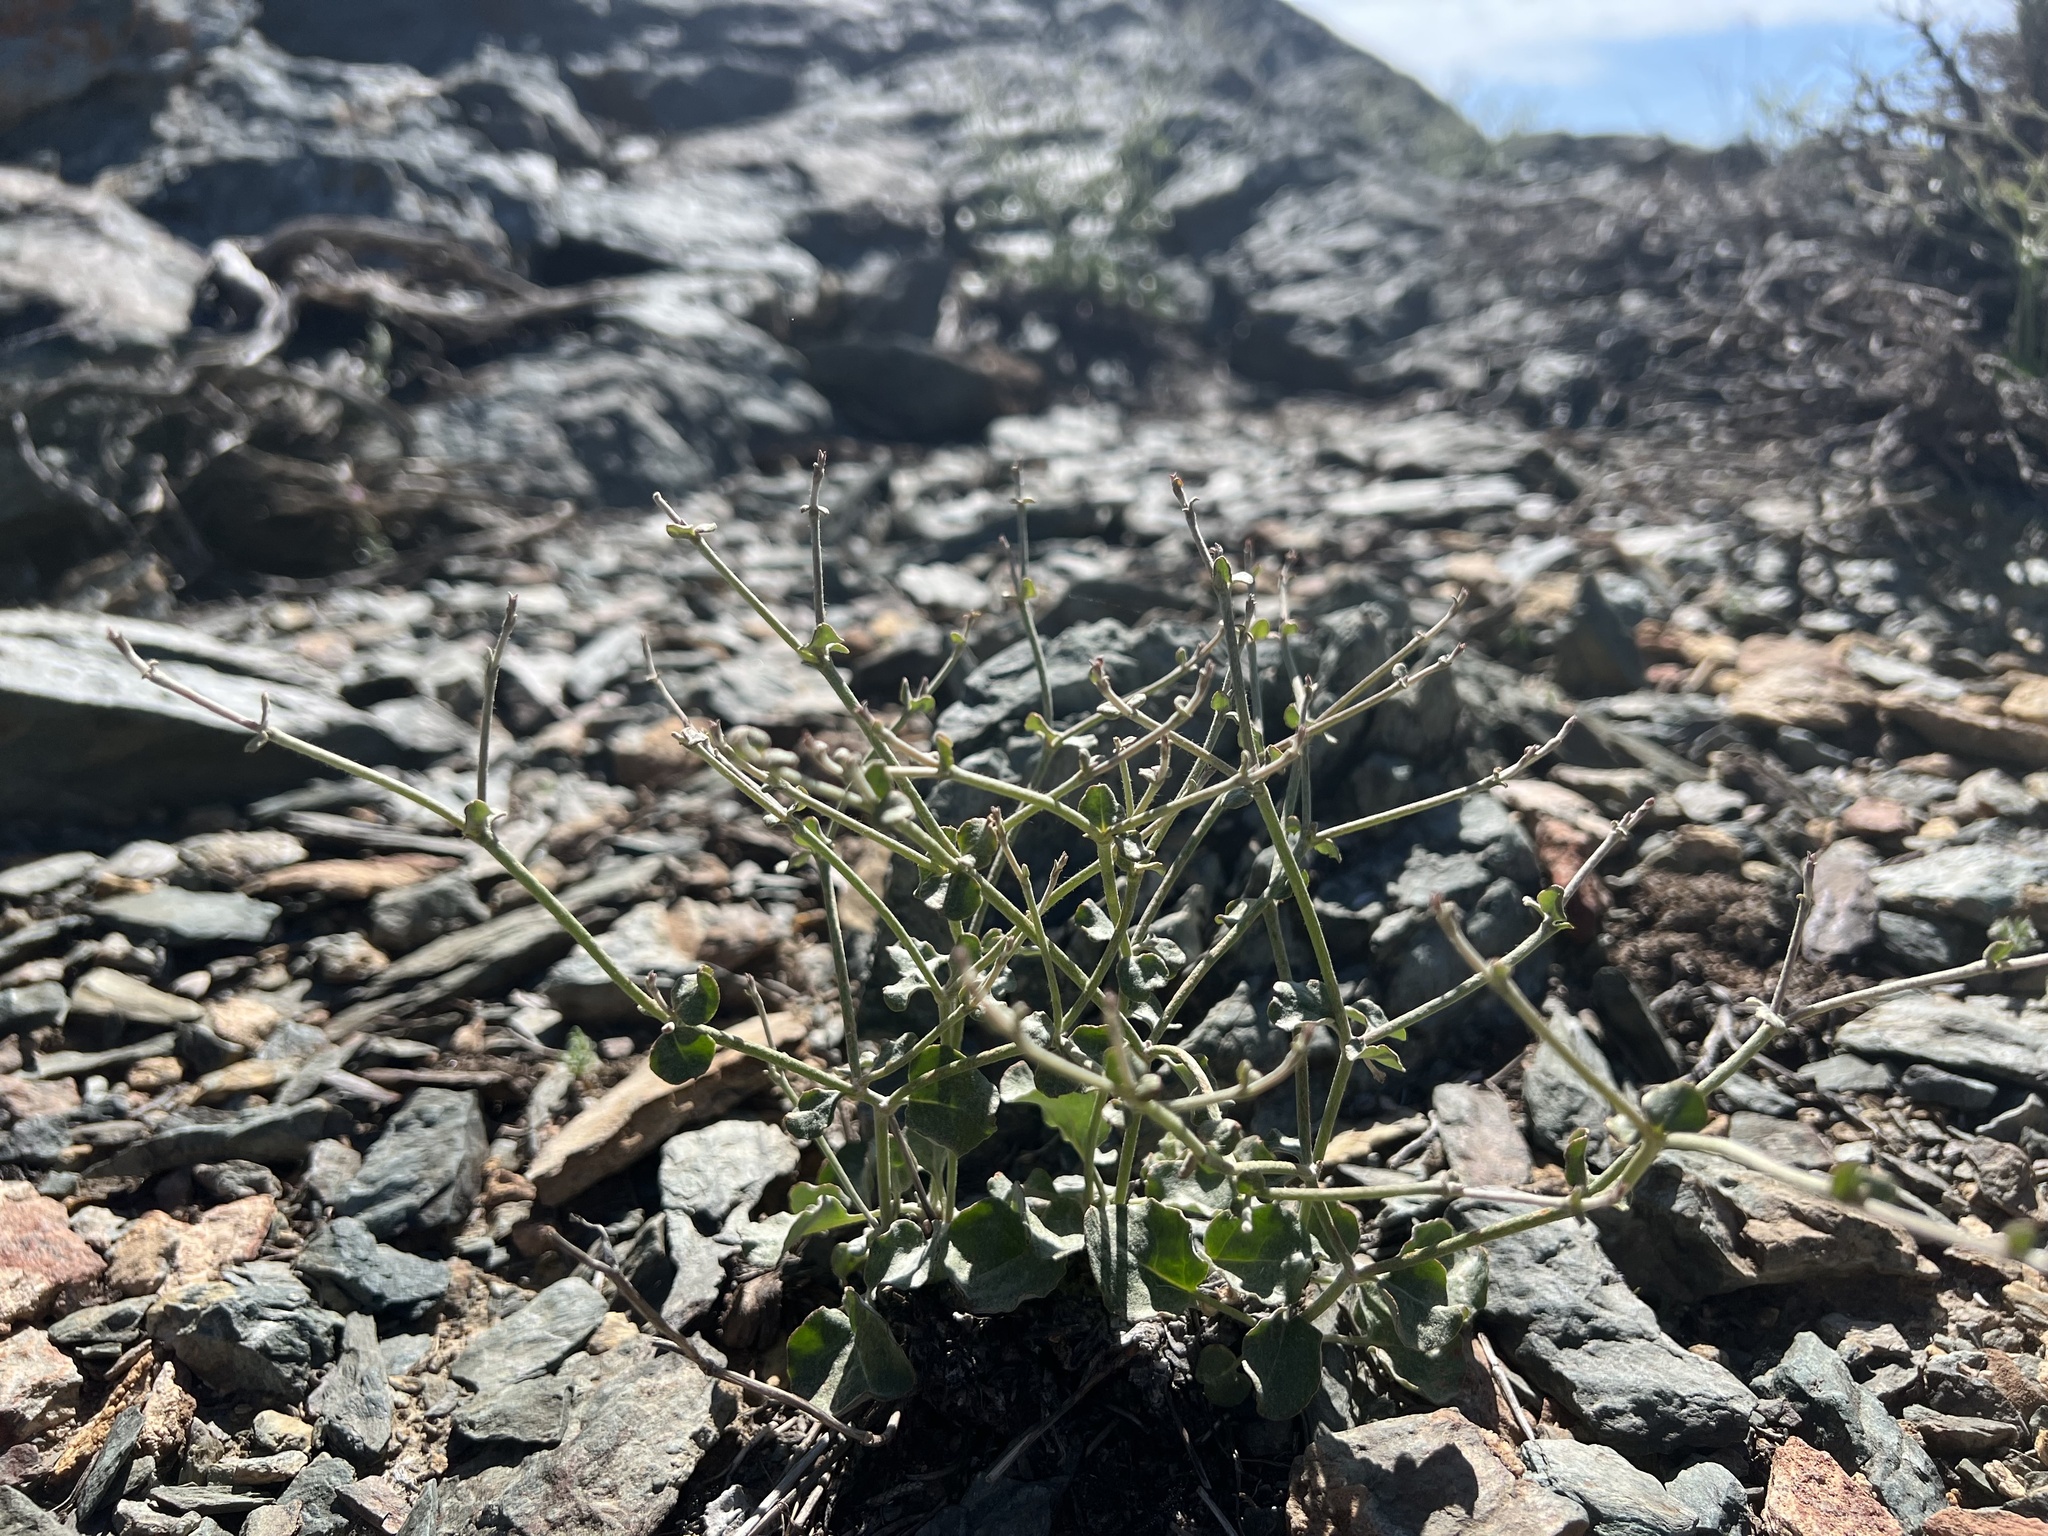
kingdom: Plantae
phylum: Tracheophyta
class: Magnoliopsida
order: Caryophyllales
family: Polygonaceae
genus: Eriogonum
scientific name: Eriogonum panamintense
